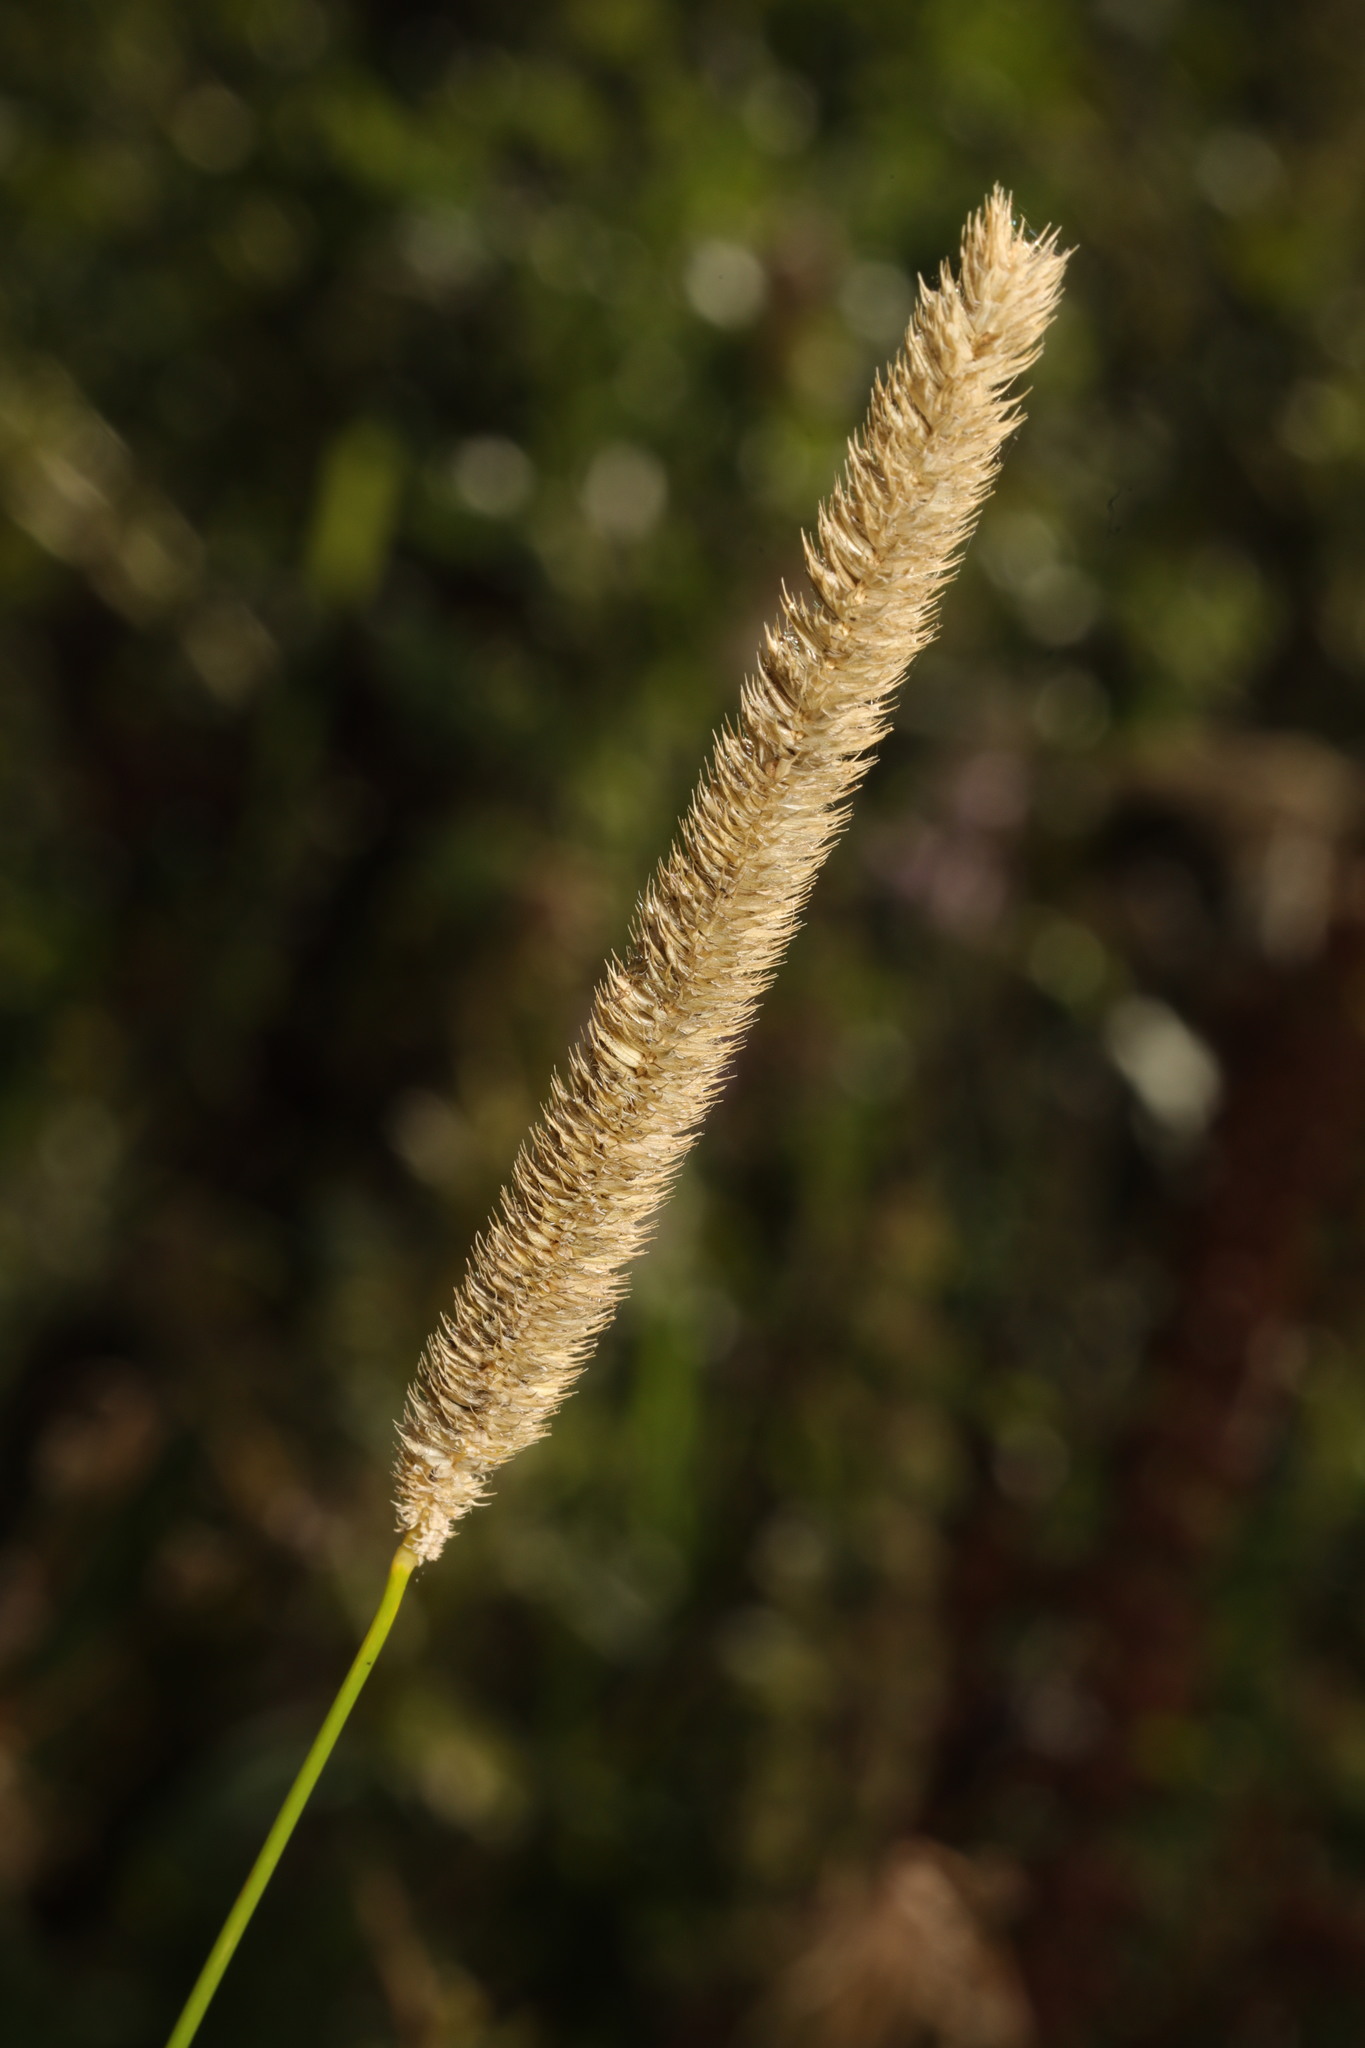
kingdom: Plantae
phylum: Tracheophyta
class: Liliopsida
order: Poales
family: Poaceae
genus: Phleum
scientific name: Phleum pratense
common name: Timothy grass
